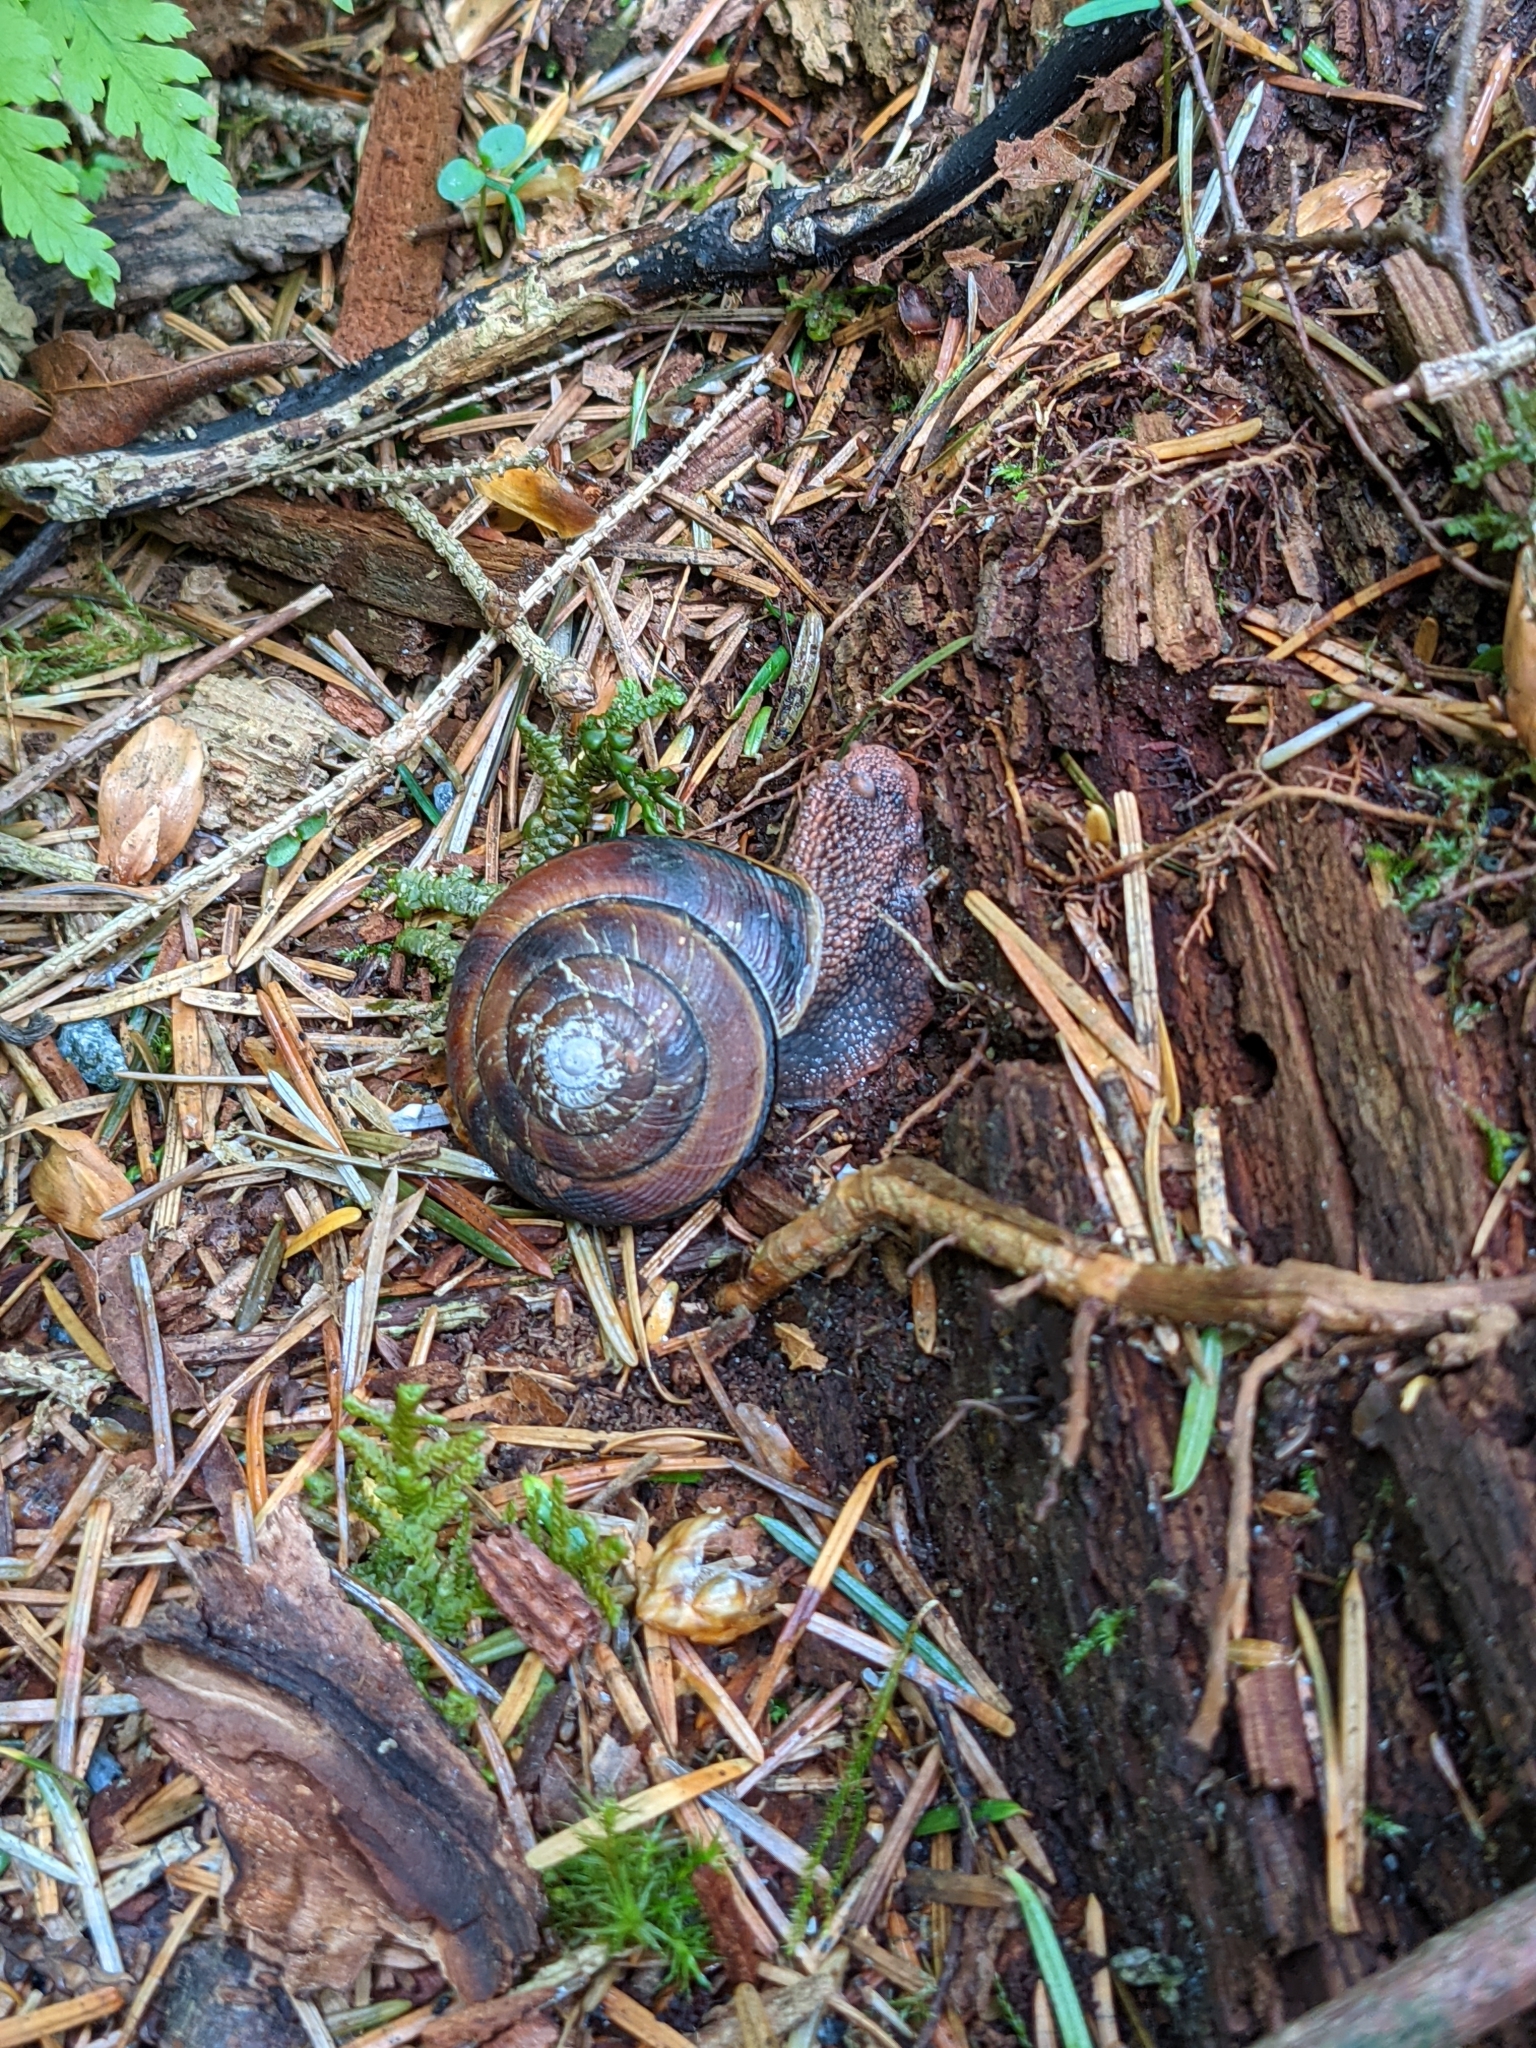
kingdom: Animalia
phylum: Mollusca
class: Gastropoda
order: Stylommatophora
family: Xanthonychidae
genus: Monadenia
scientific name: Monadenia fidelis
